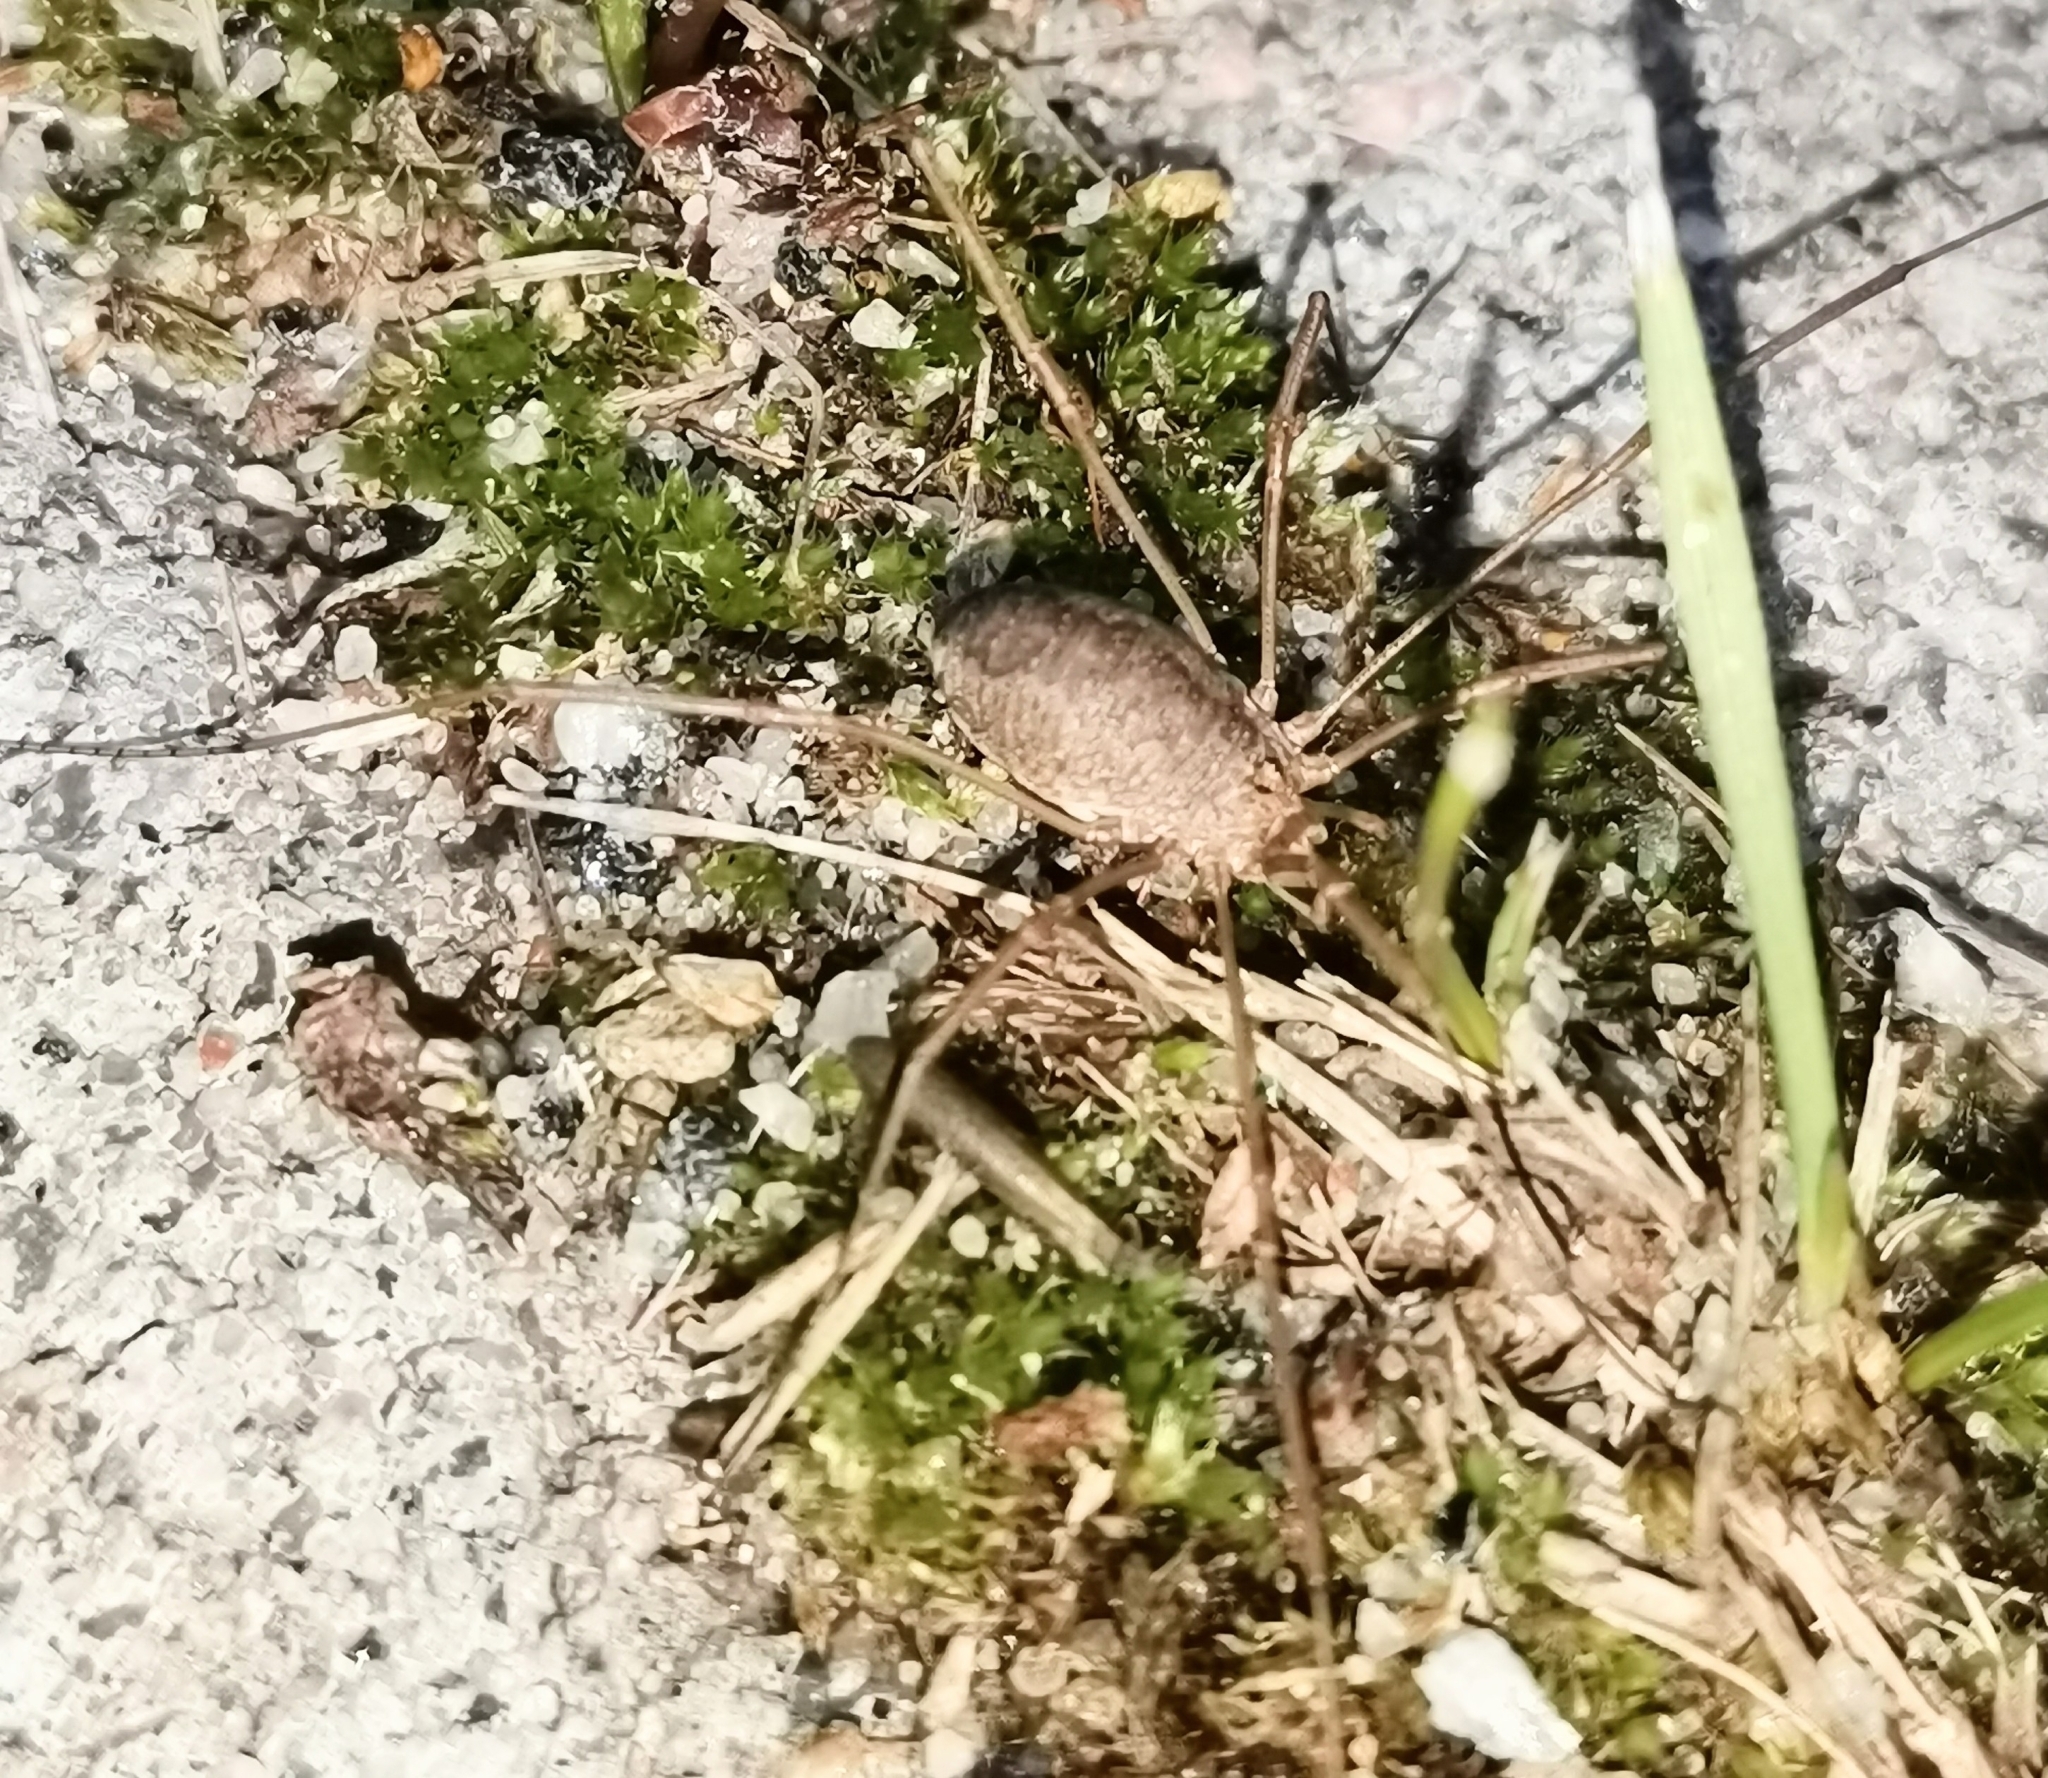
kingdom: Animalia
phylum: Arthropoda
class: Arachnida
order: Opiliones
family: Phalangiidae
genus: Phalangium
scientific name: Phalangium opilio
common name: Daddy longleg
